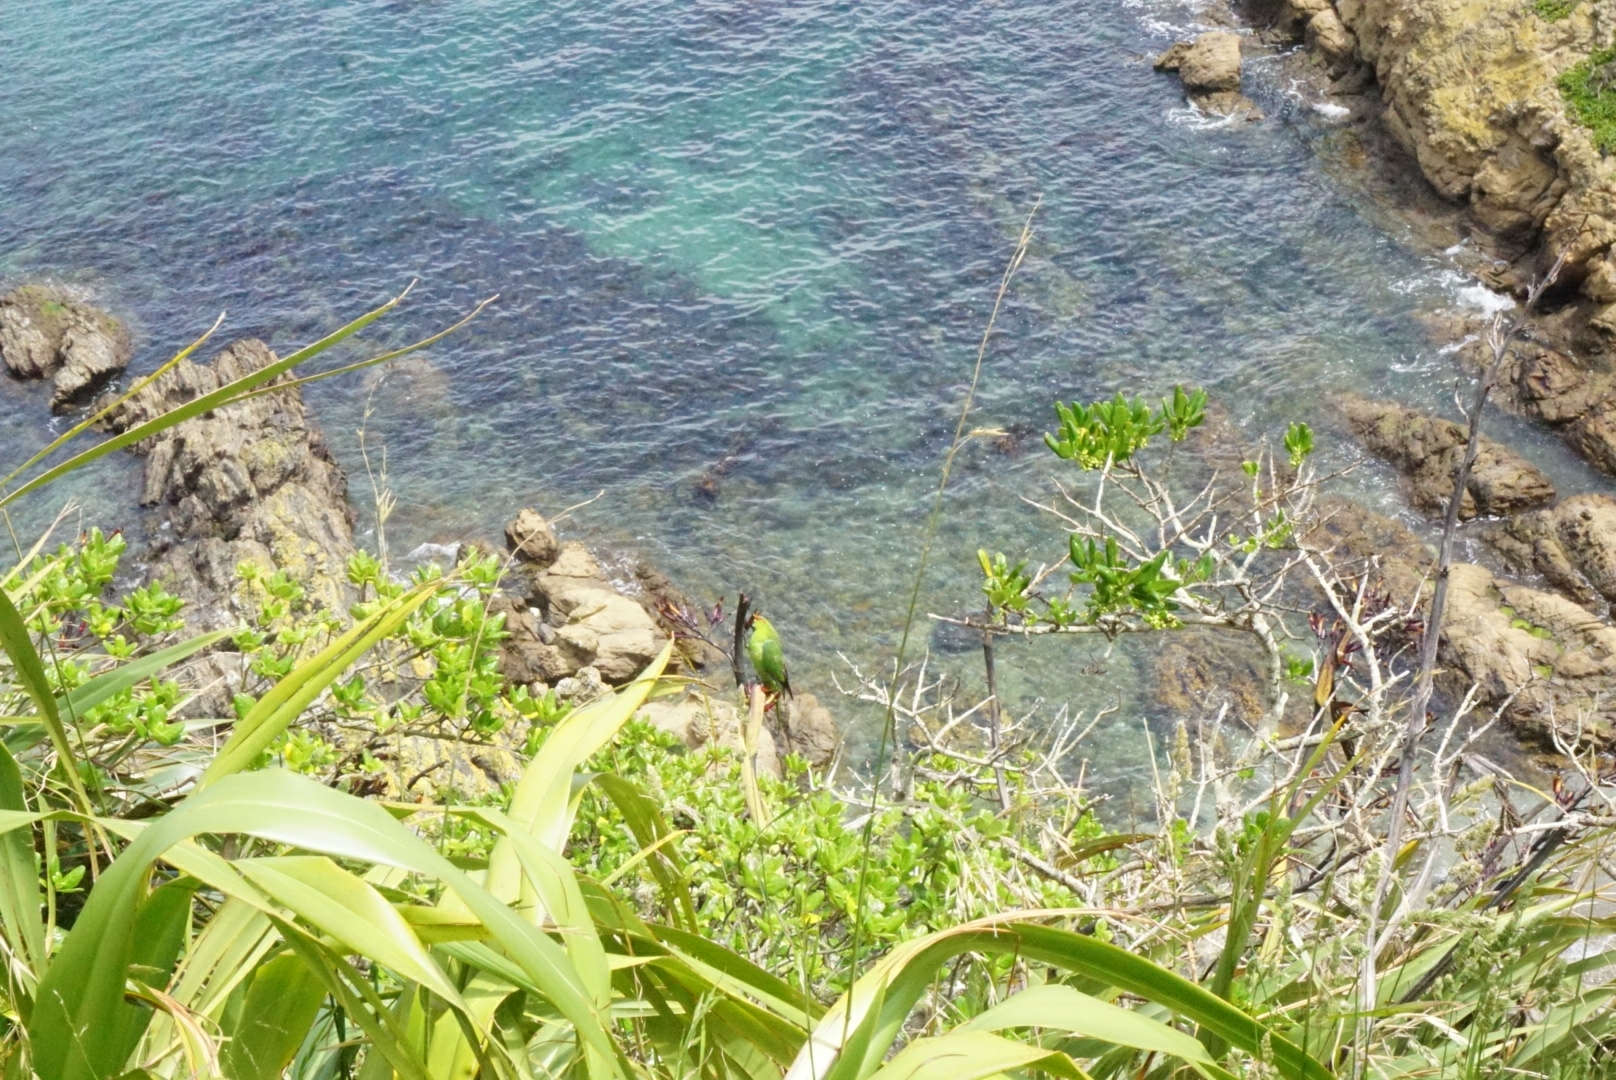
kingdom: Animalia
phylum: Chordata
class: Aves
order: Psittaciformes
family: Psittacidae
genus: Cyanoramphus
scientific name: Cyanoramphus novaezelandiae
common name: Red-fronted parakeet
